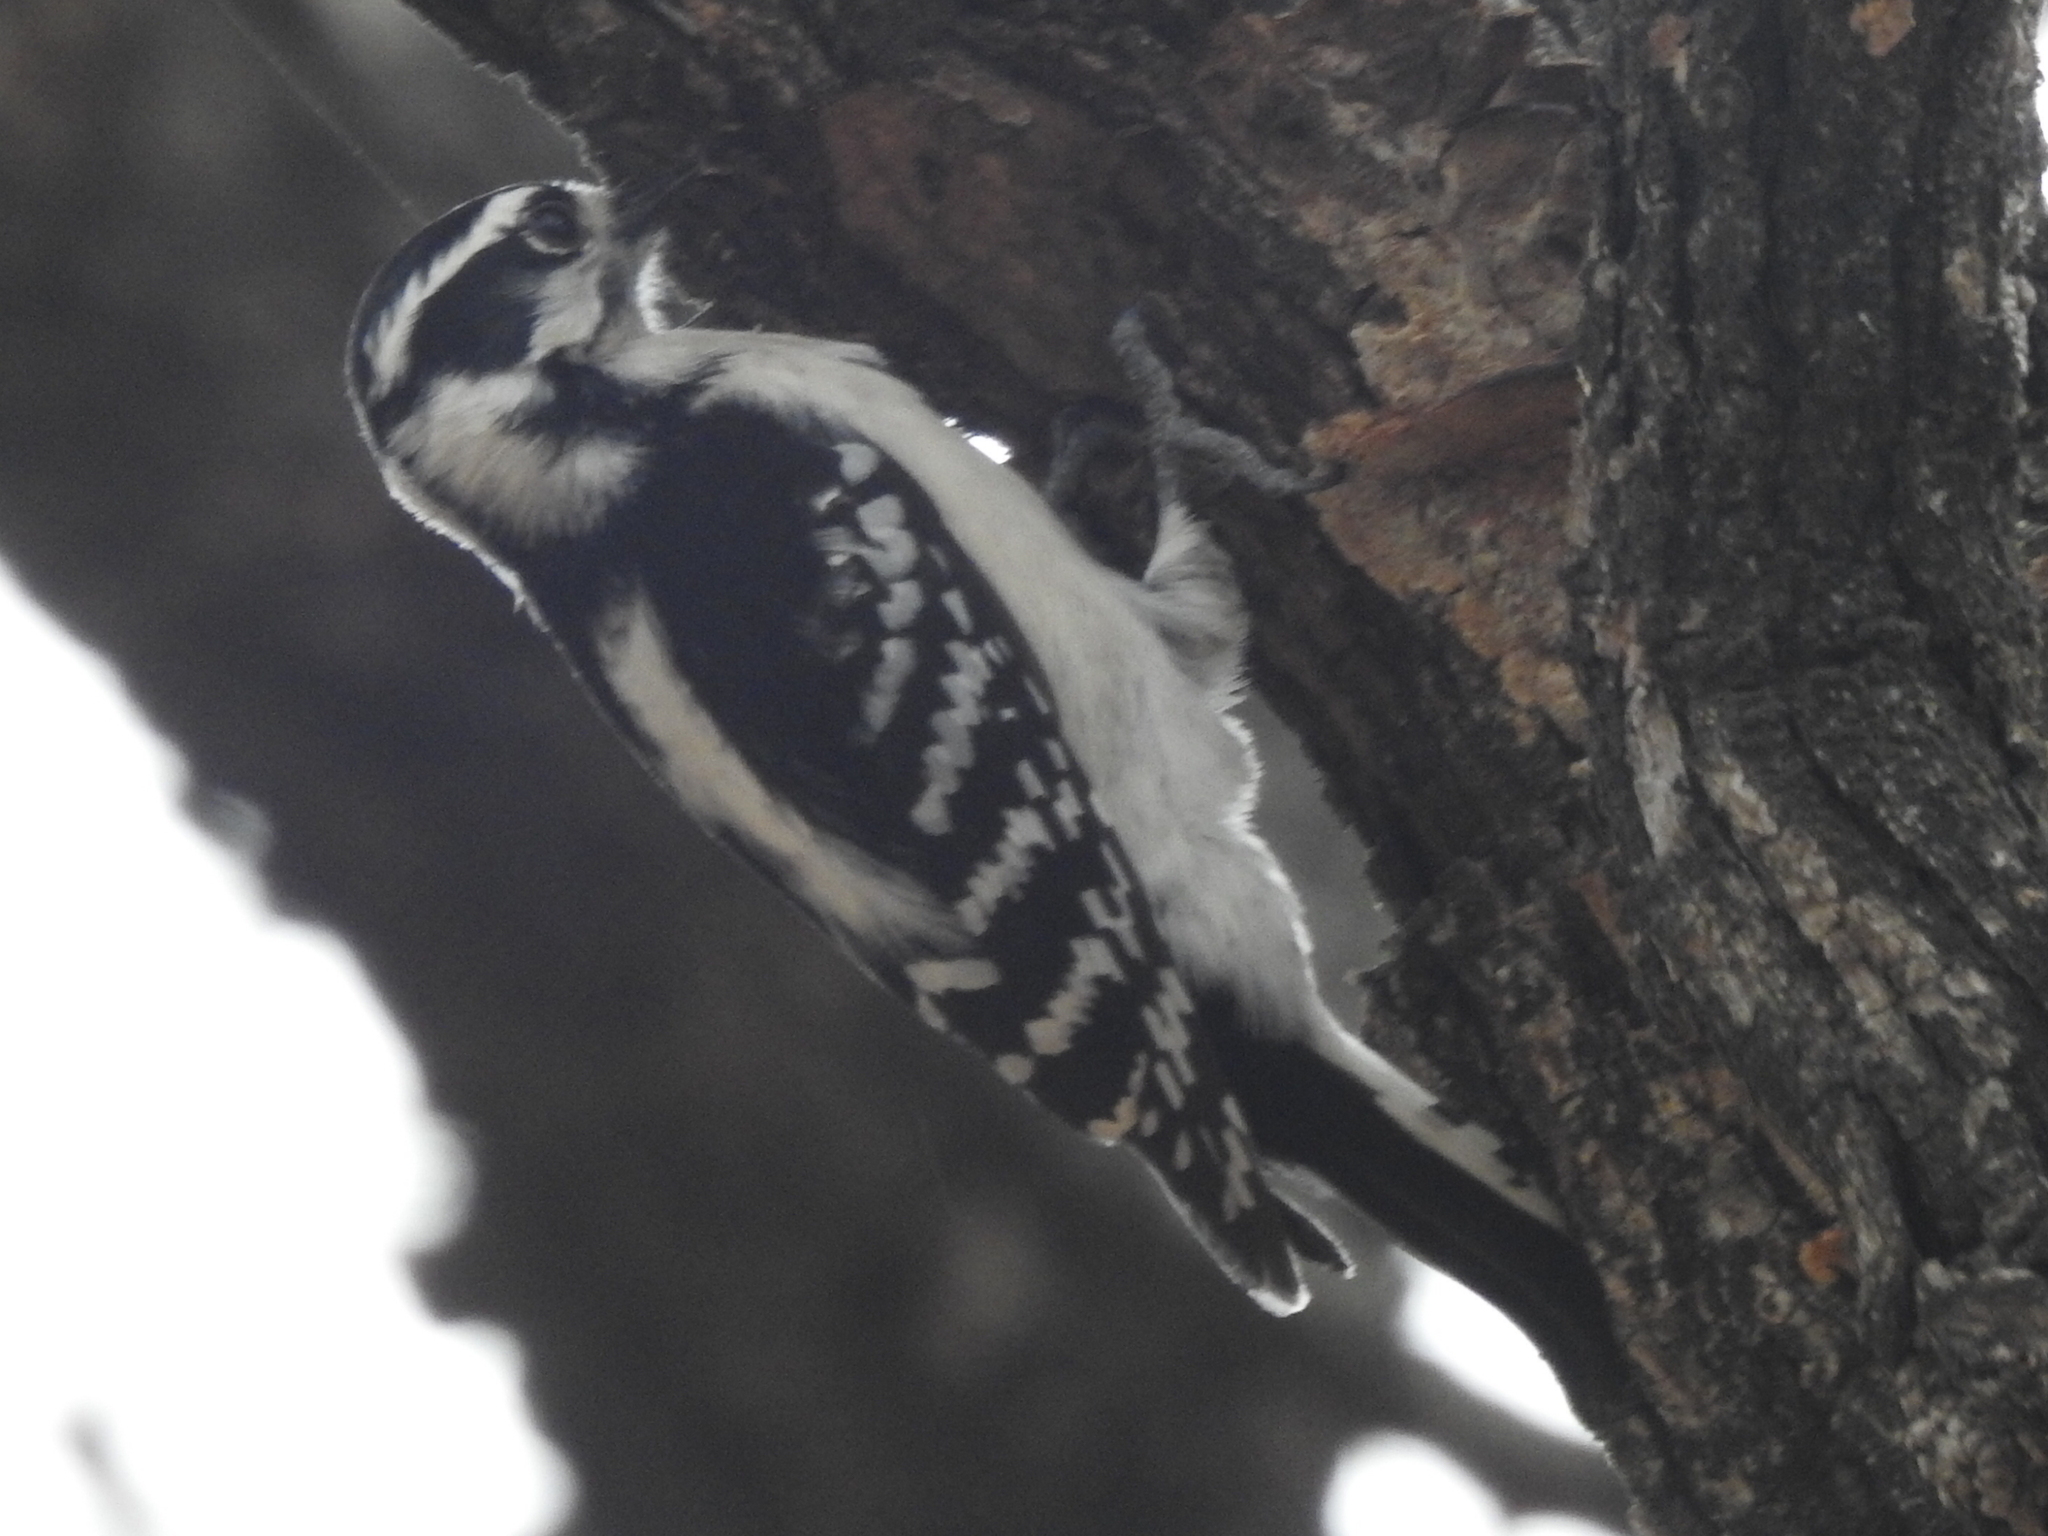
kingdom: Animalia
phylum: Chordata
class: Aves
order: Piciformes
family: Picidae
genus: Dryobates
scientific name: Dryobates pubescens
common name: Downy woodpecker
